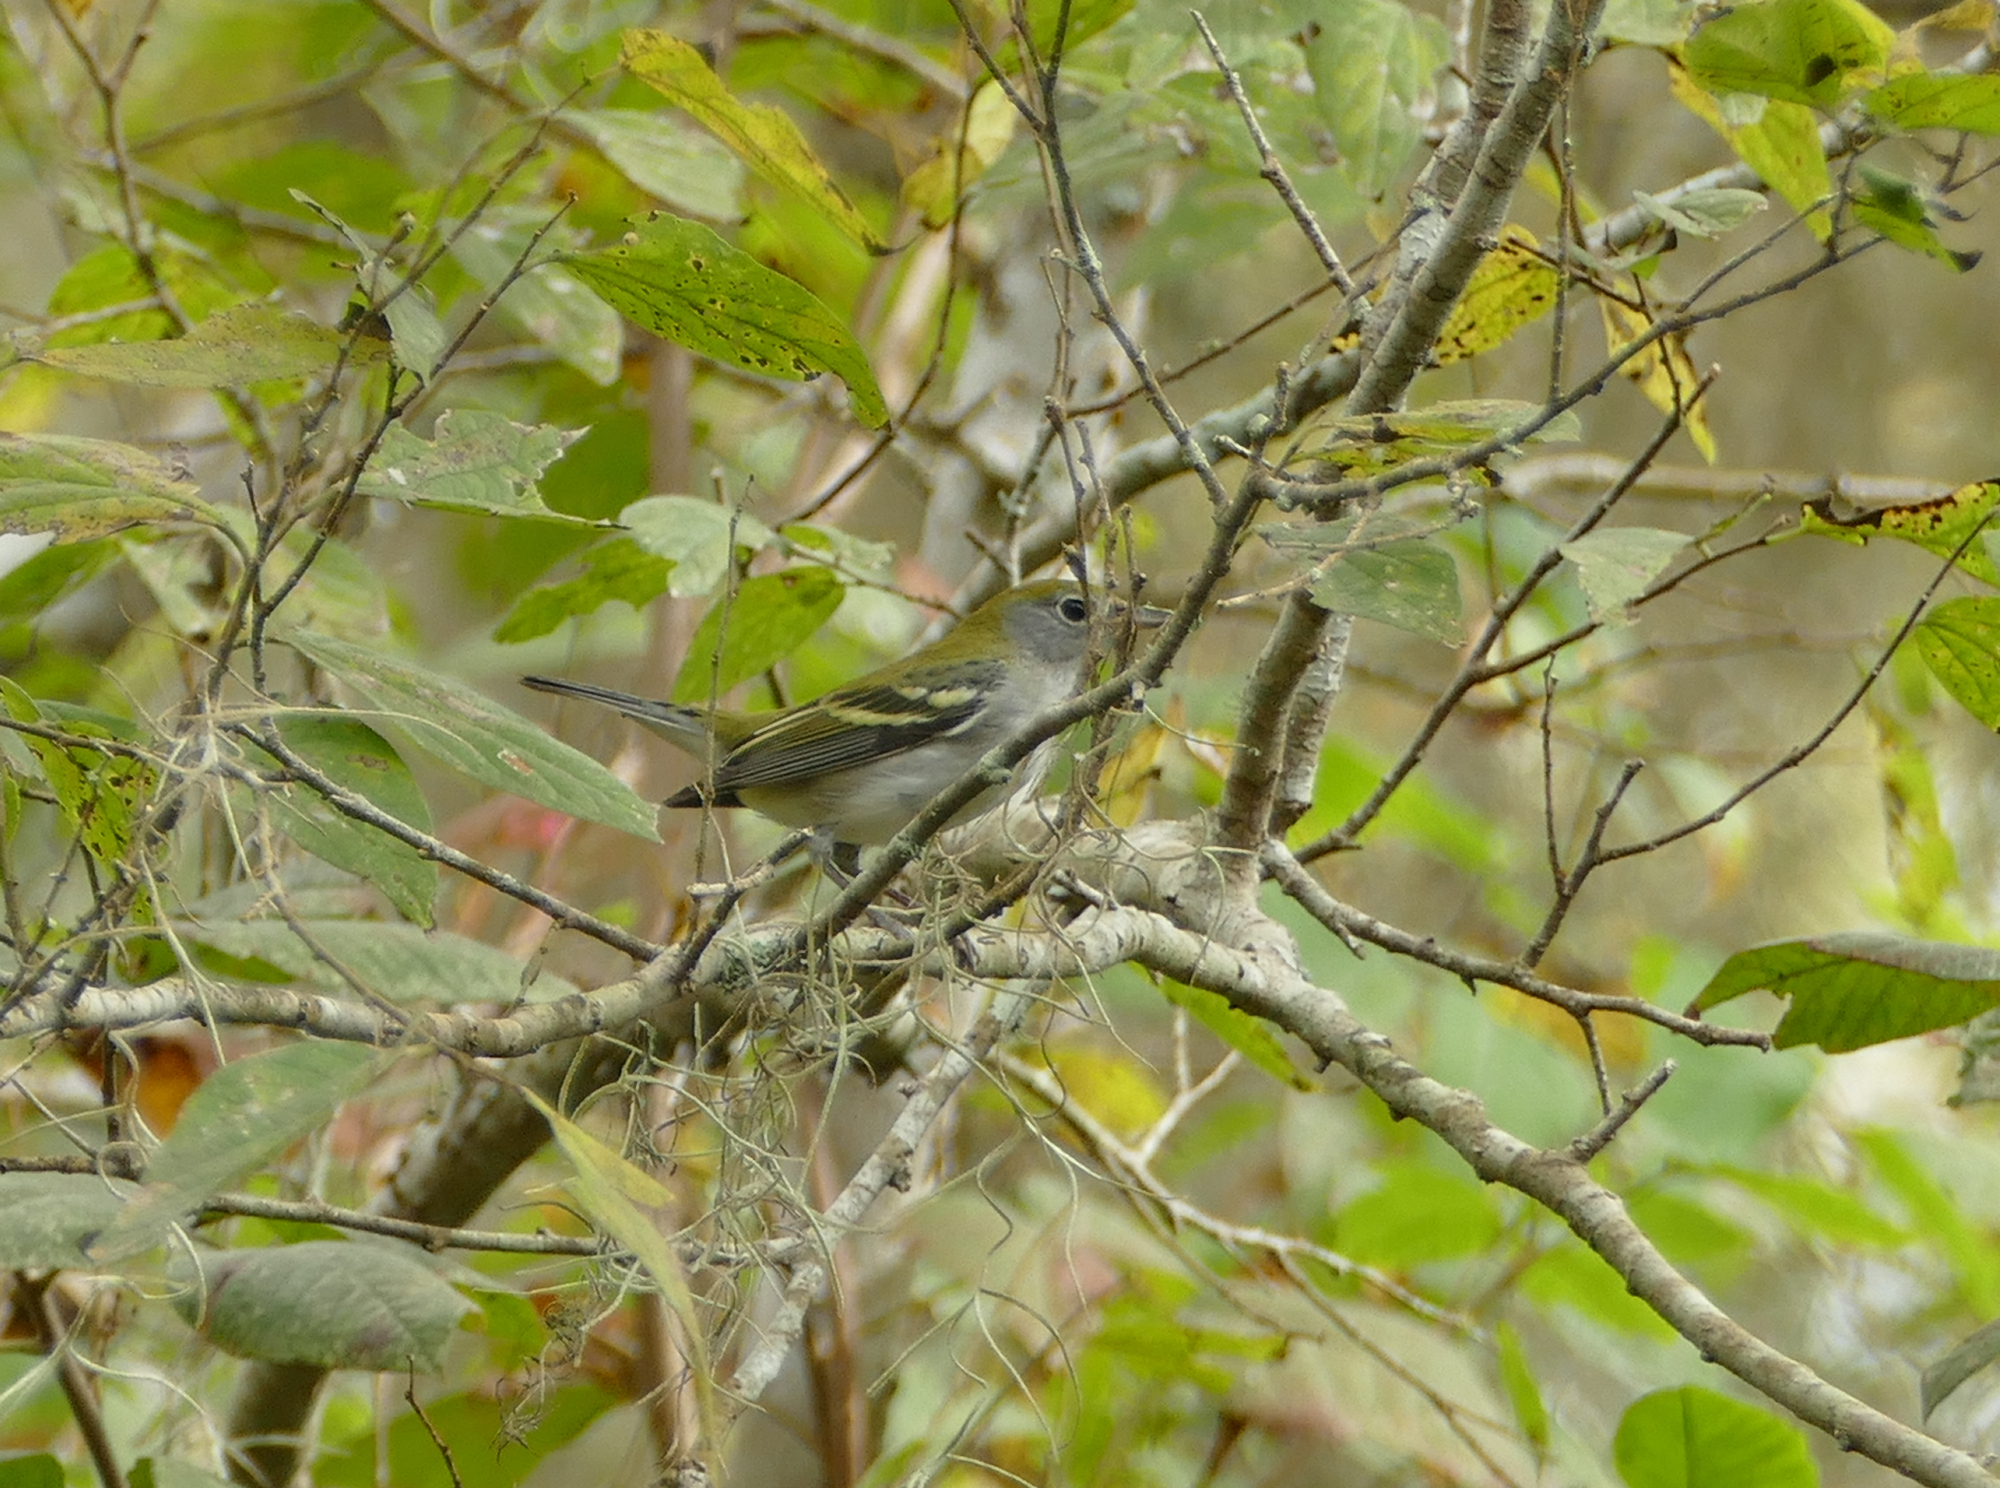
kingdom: Animalia
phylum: Chordata
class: Aves
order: Passeriformes
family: Parulidae
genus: Setophaga
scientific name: Setophaga pensylvanica
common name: Chestnut-sided warbler
